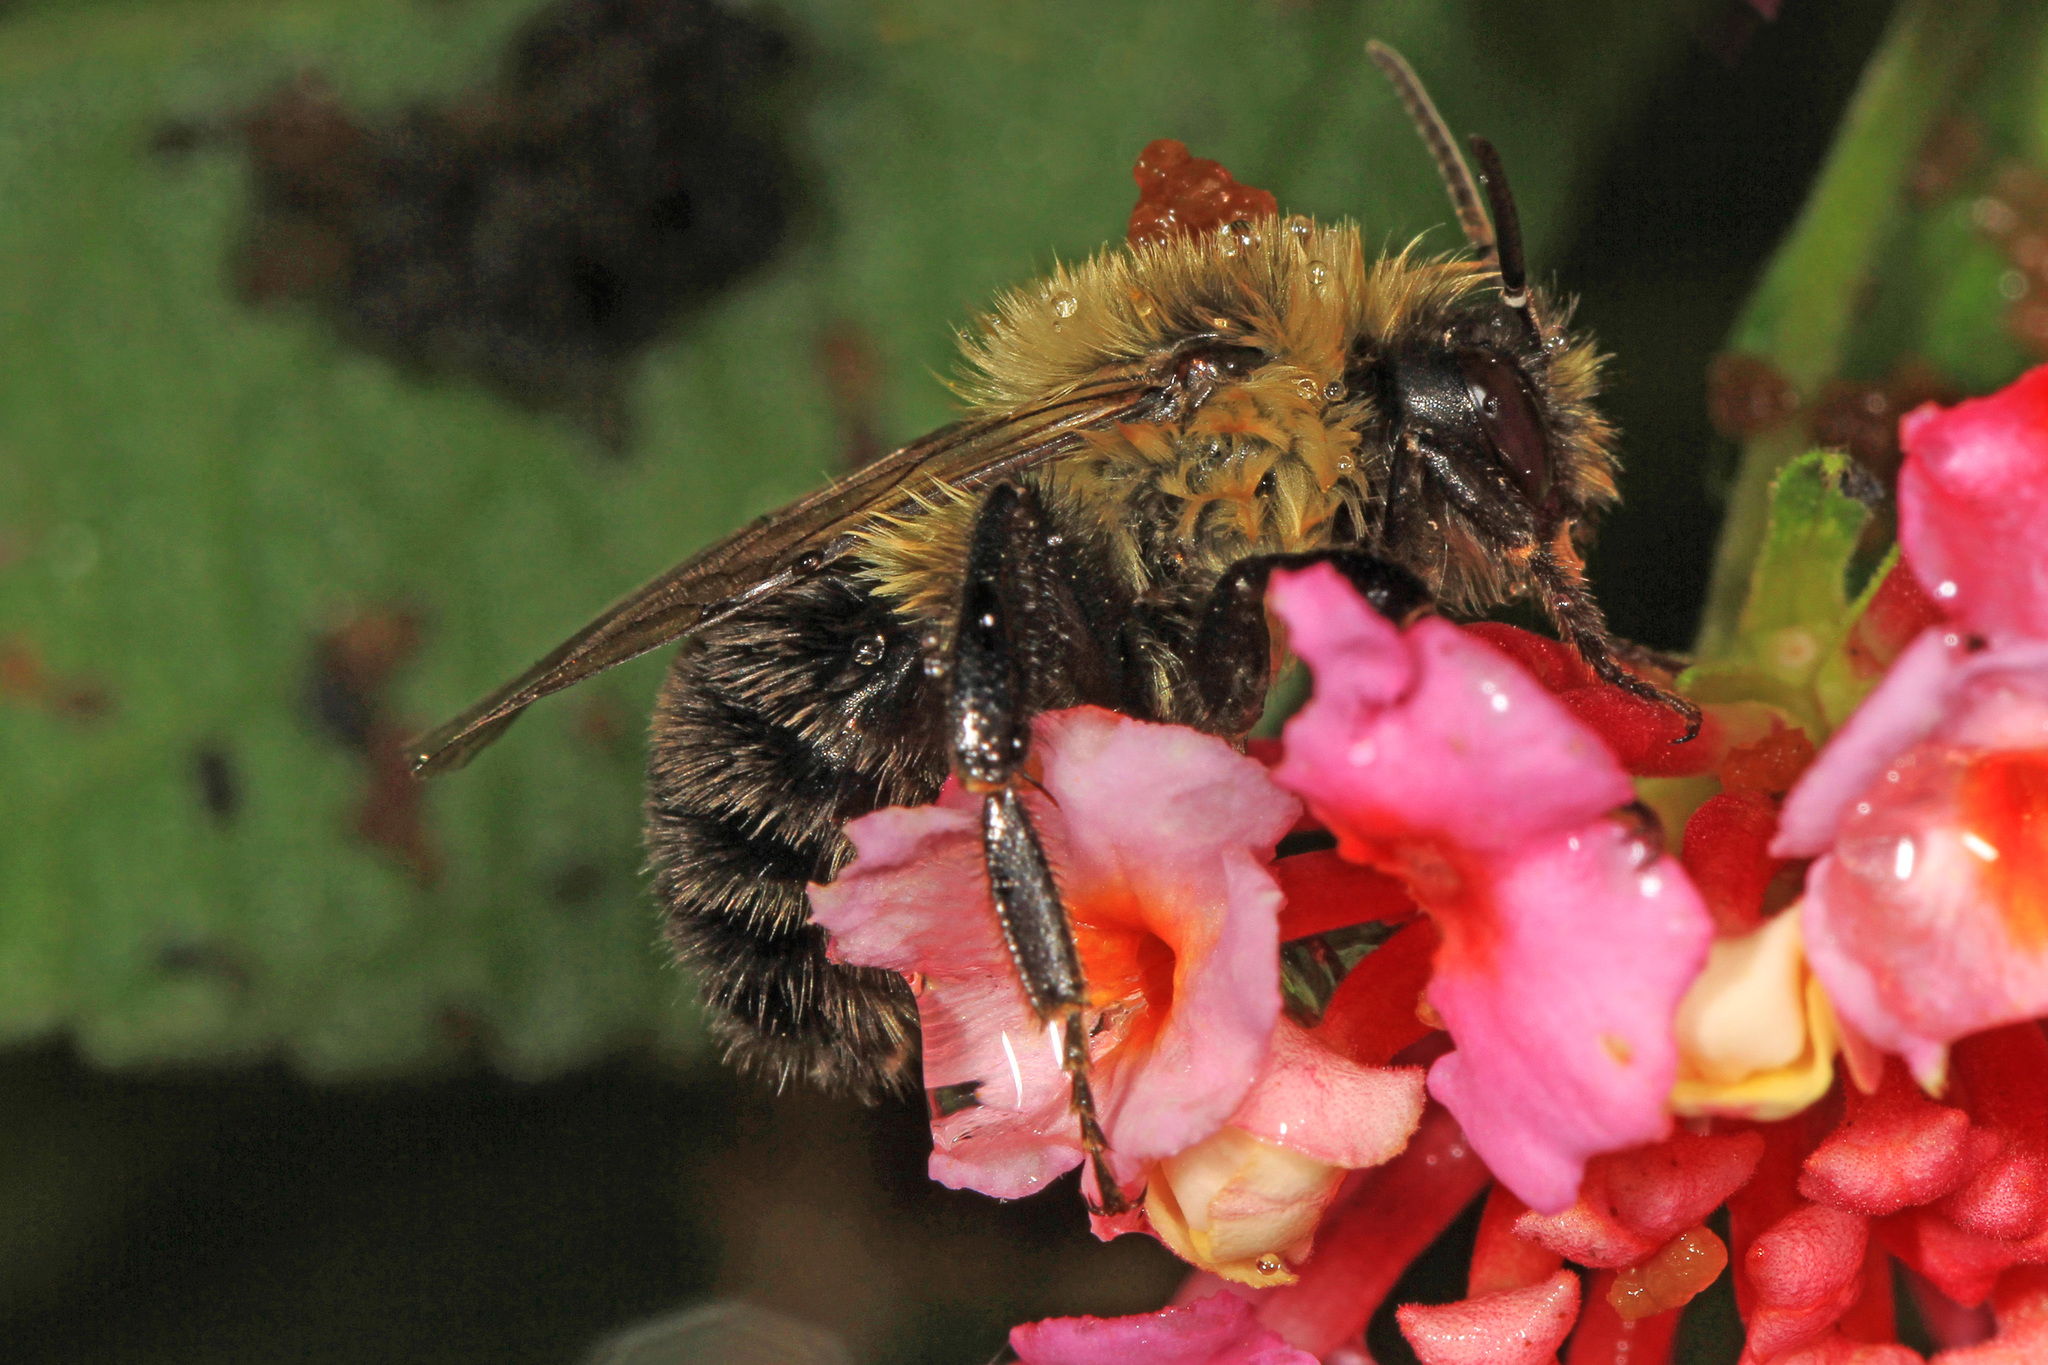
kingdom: Animalia
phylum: Arthropoda
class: Insecta
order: Hymenoptera
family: Apidae
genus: Bombus
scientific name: Bombus impatiens
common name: Common eastern bumble bee
